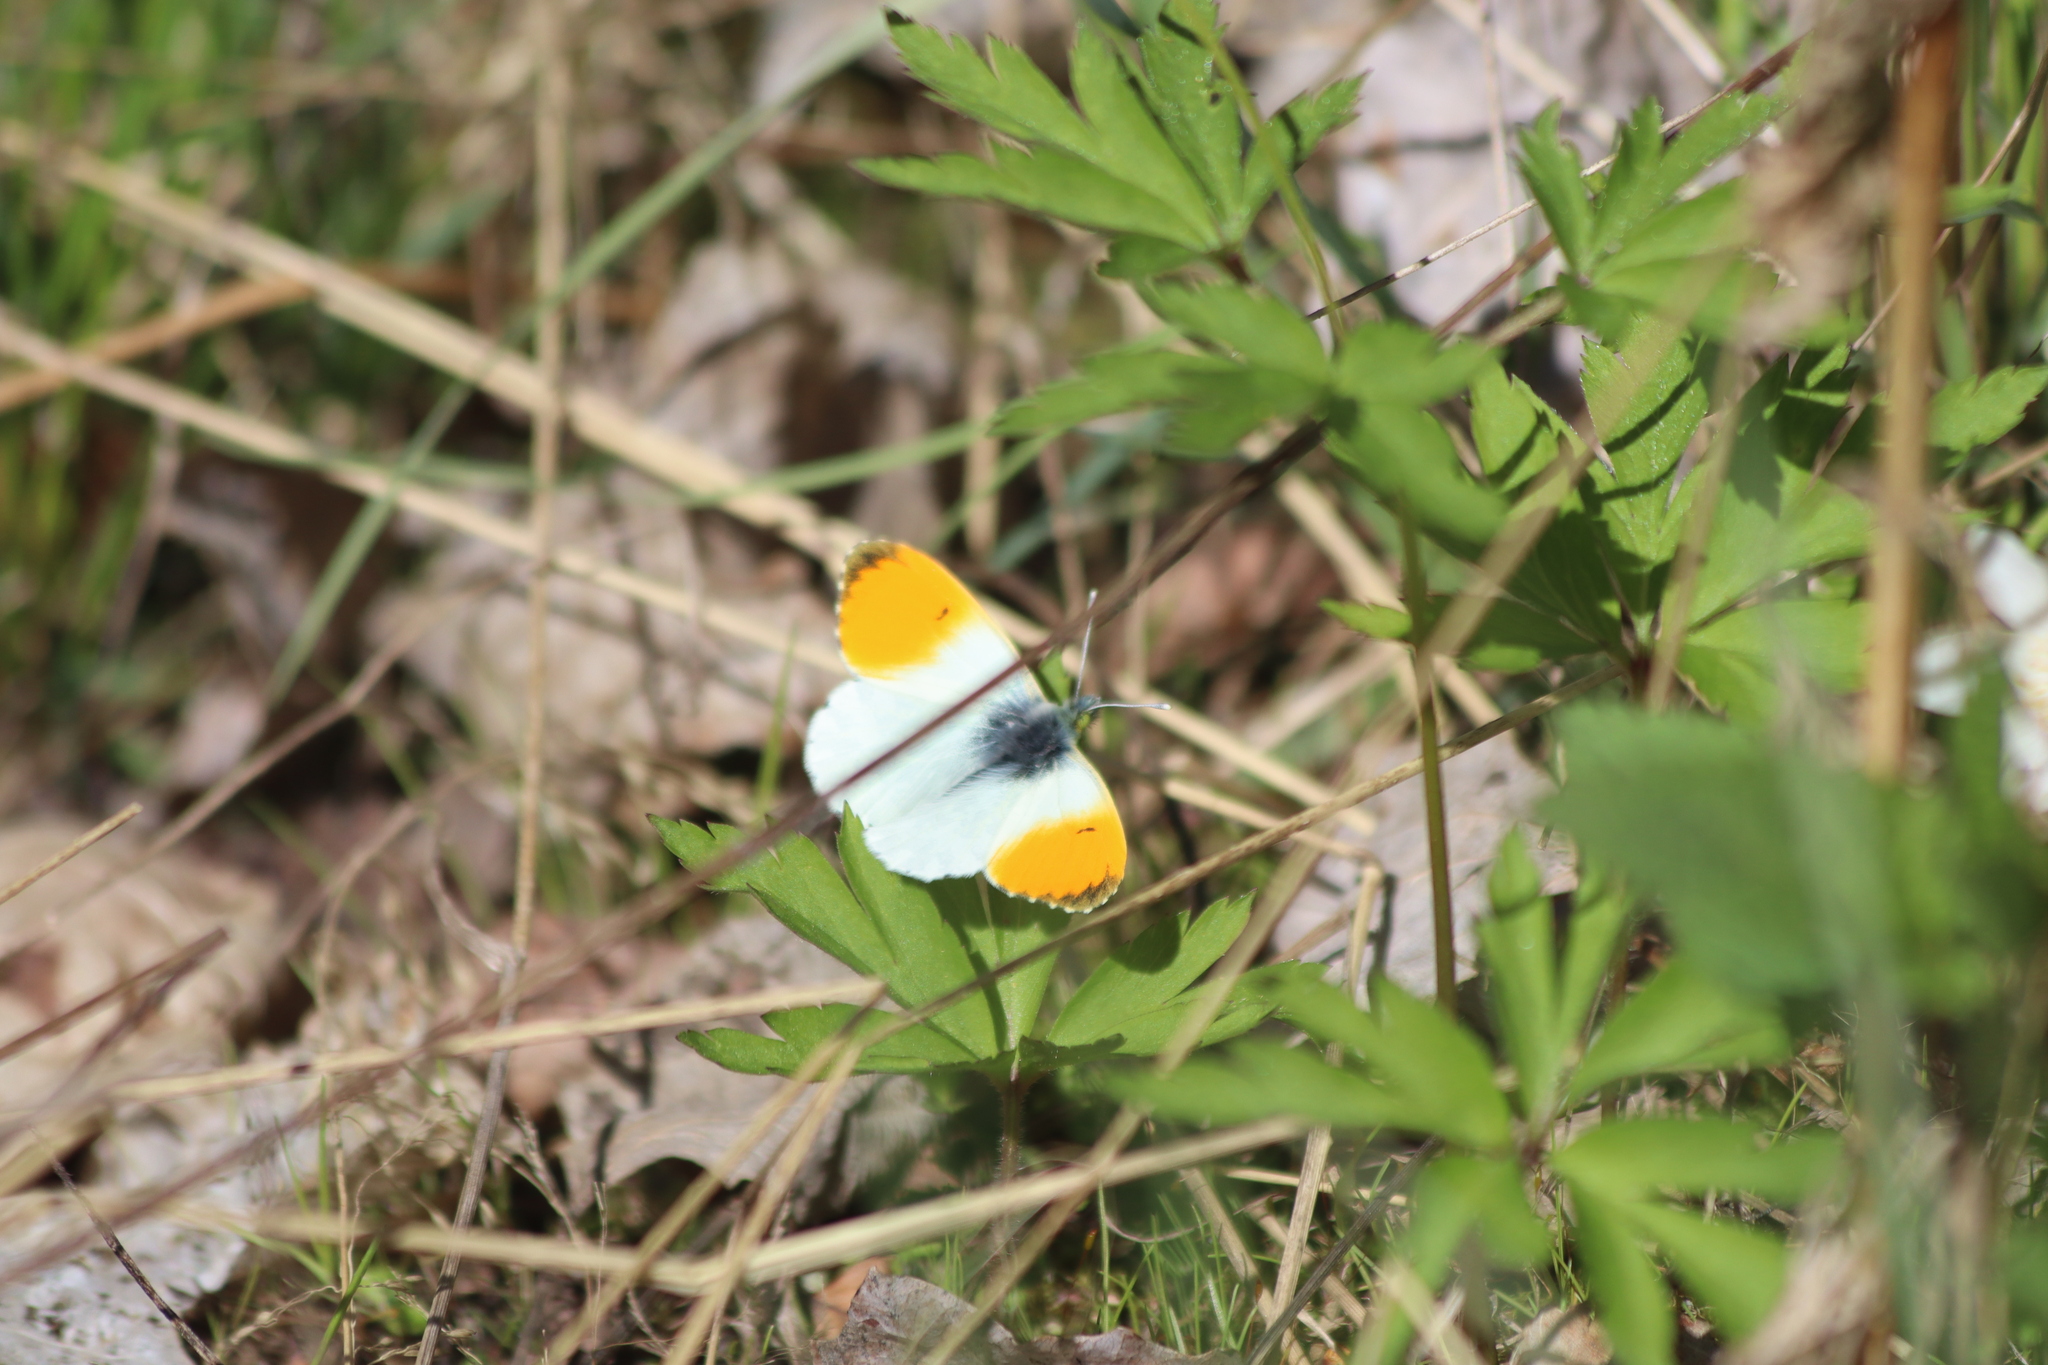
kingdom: Animalia
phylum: Arthropoda
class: Insecta
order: Lepidoptera
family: Pieridae
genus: Anthocharis
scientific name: Anthocharis cardamines
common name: Orange-tip
